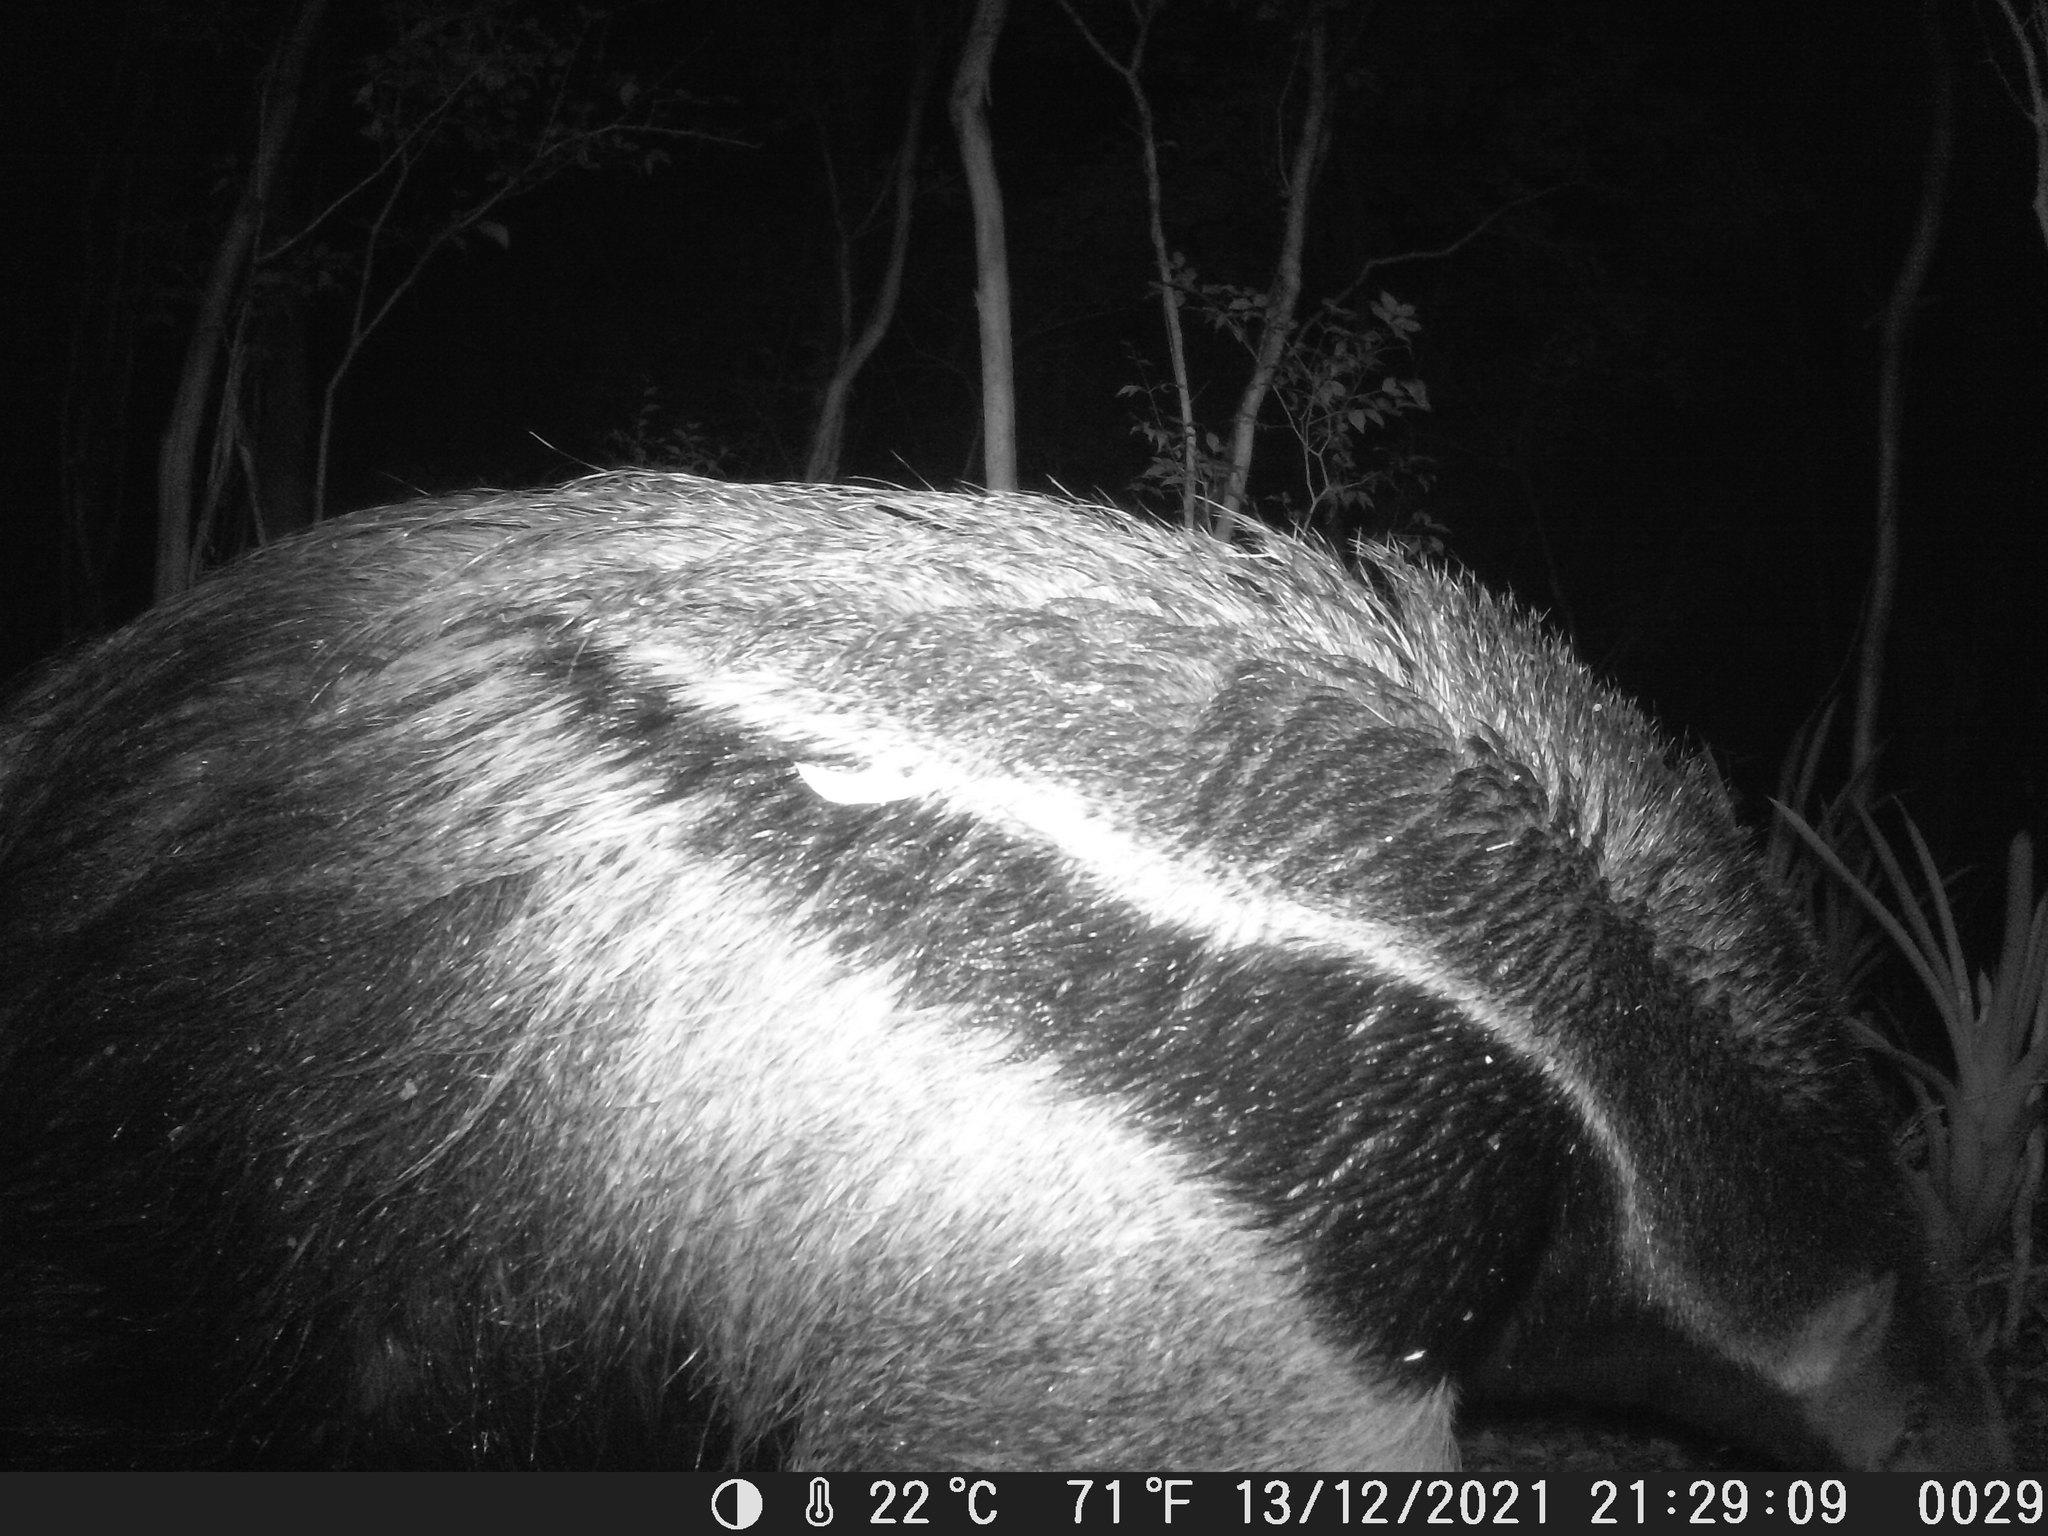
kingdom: Animalia
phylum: Chordata
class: Mammalia
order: Pilosa
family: Myrmecophagidae
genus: Myrmecophaga
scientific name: Myrmecophaga tridactyla
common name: Giant anteater
